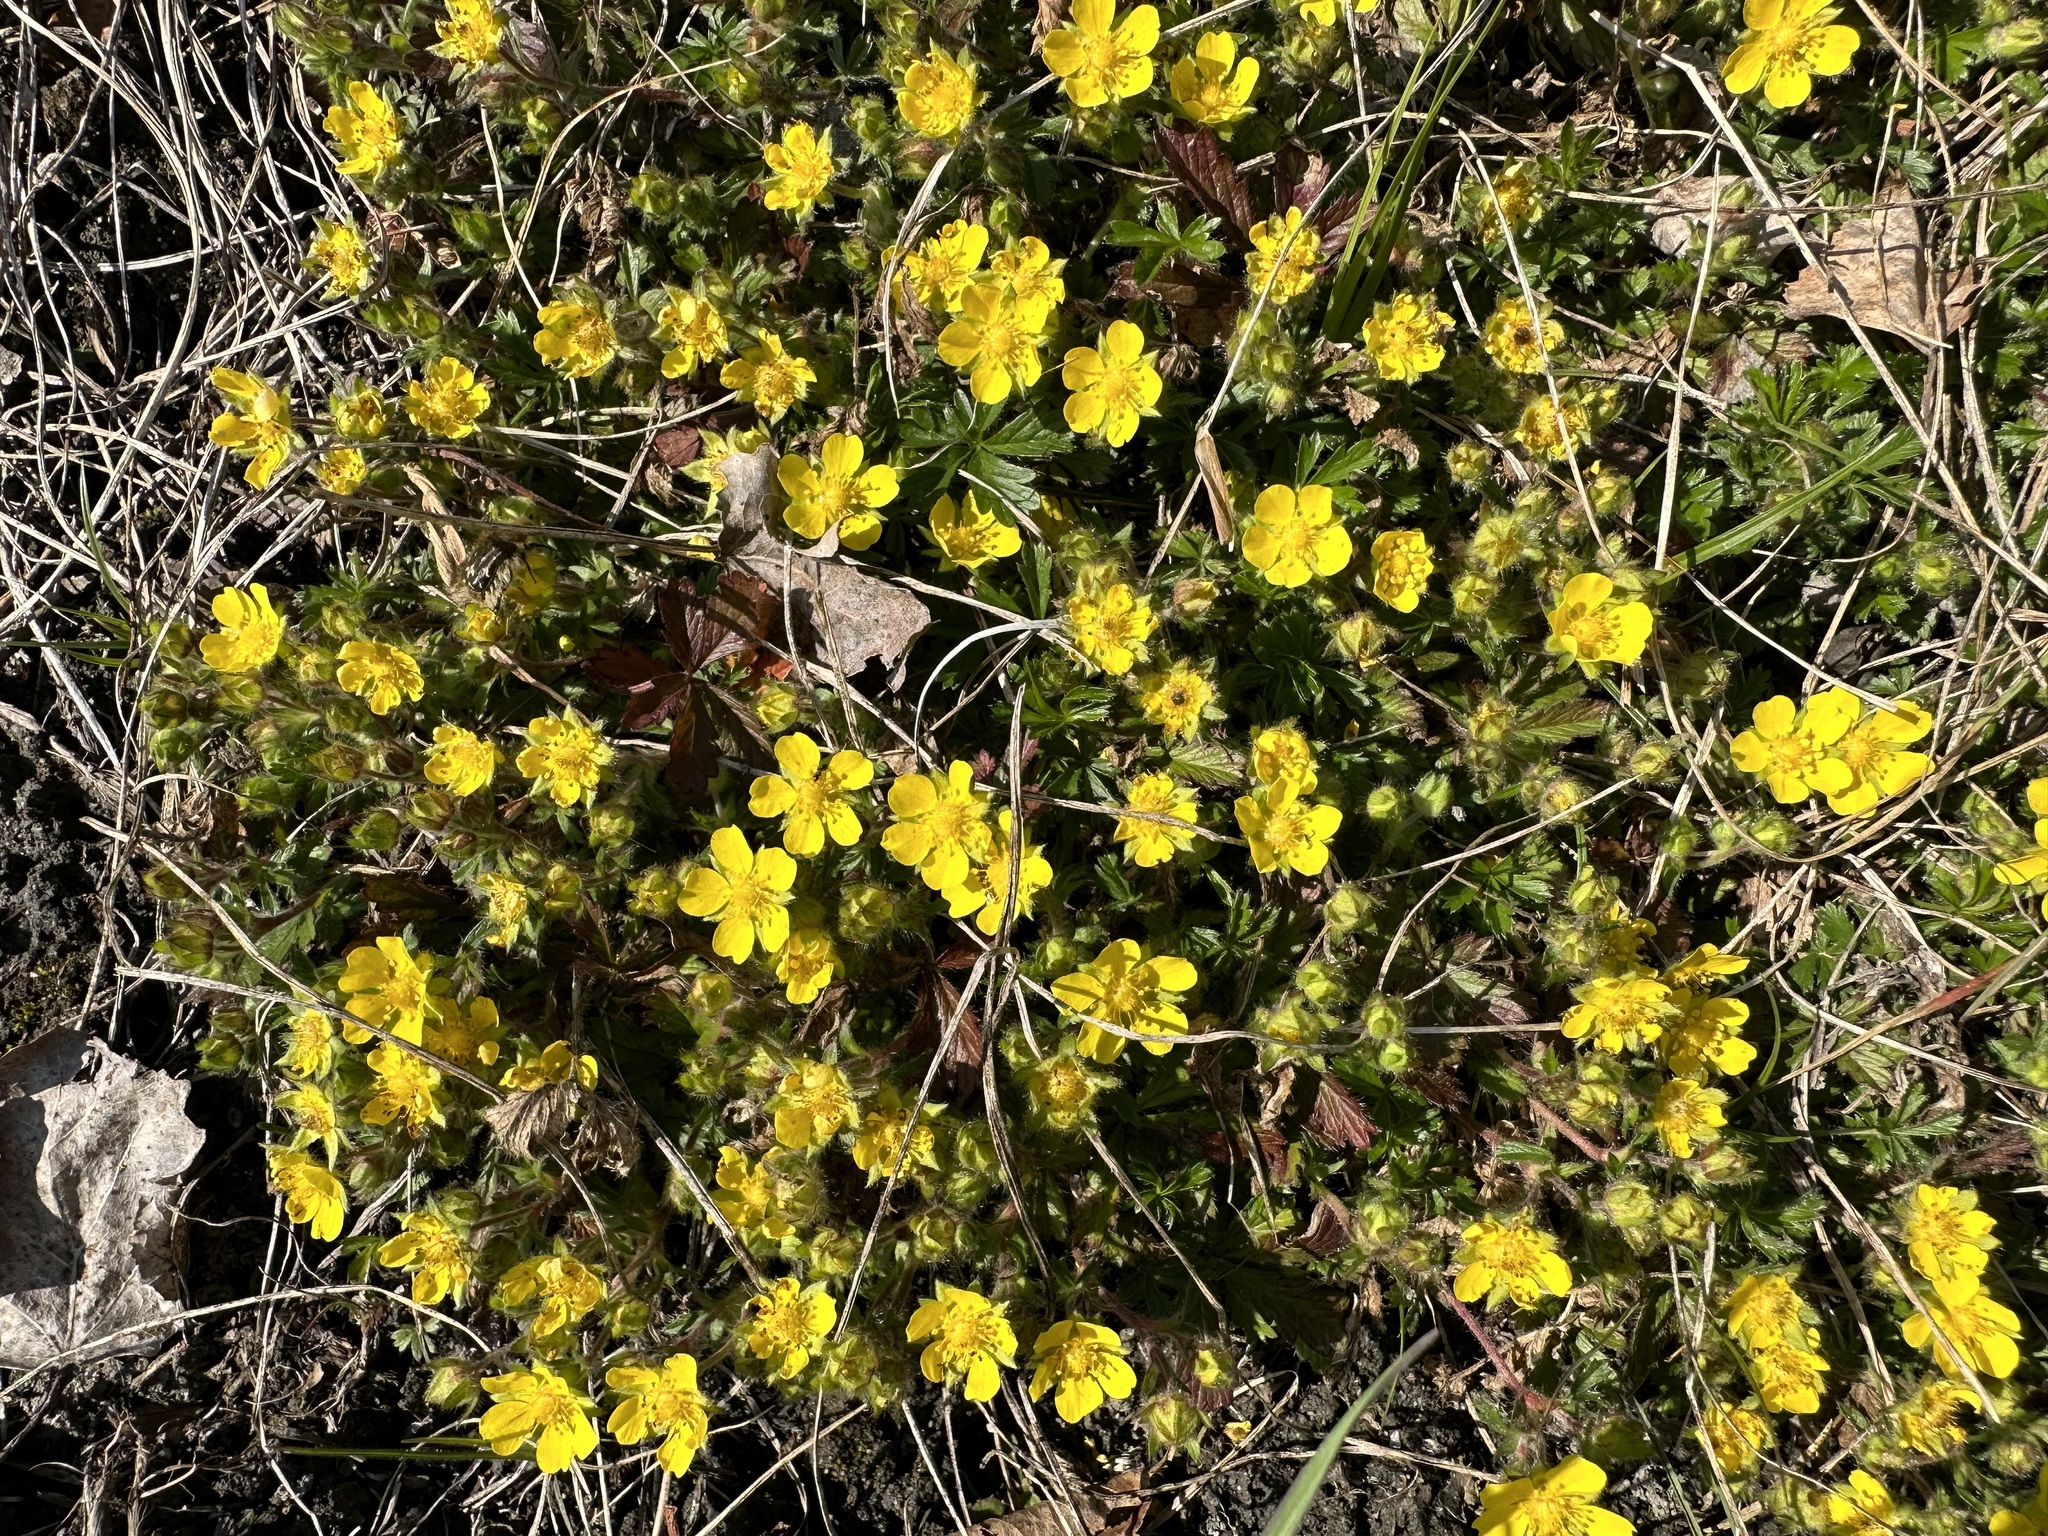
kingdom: Plantae
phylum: Tracheophyta
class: Magnoliopsida
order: Rosales
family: Rosaceae
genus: Potentilla
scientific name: Potentilla verna
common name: Spring cinquefoil
